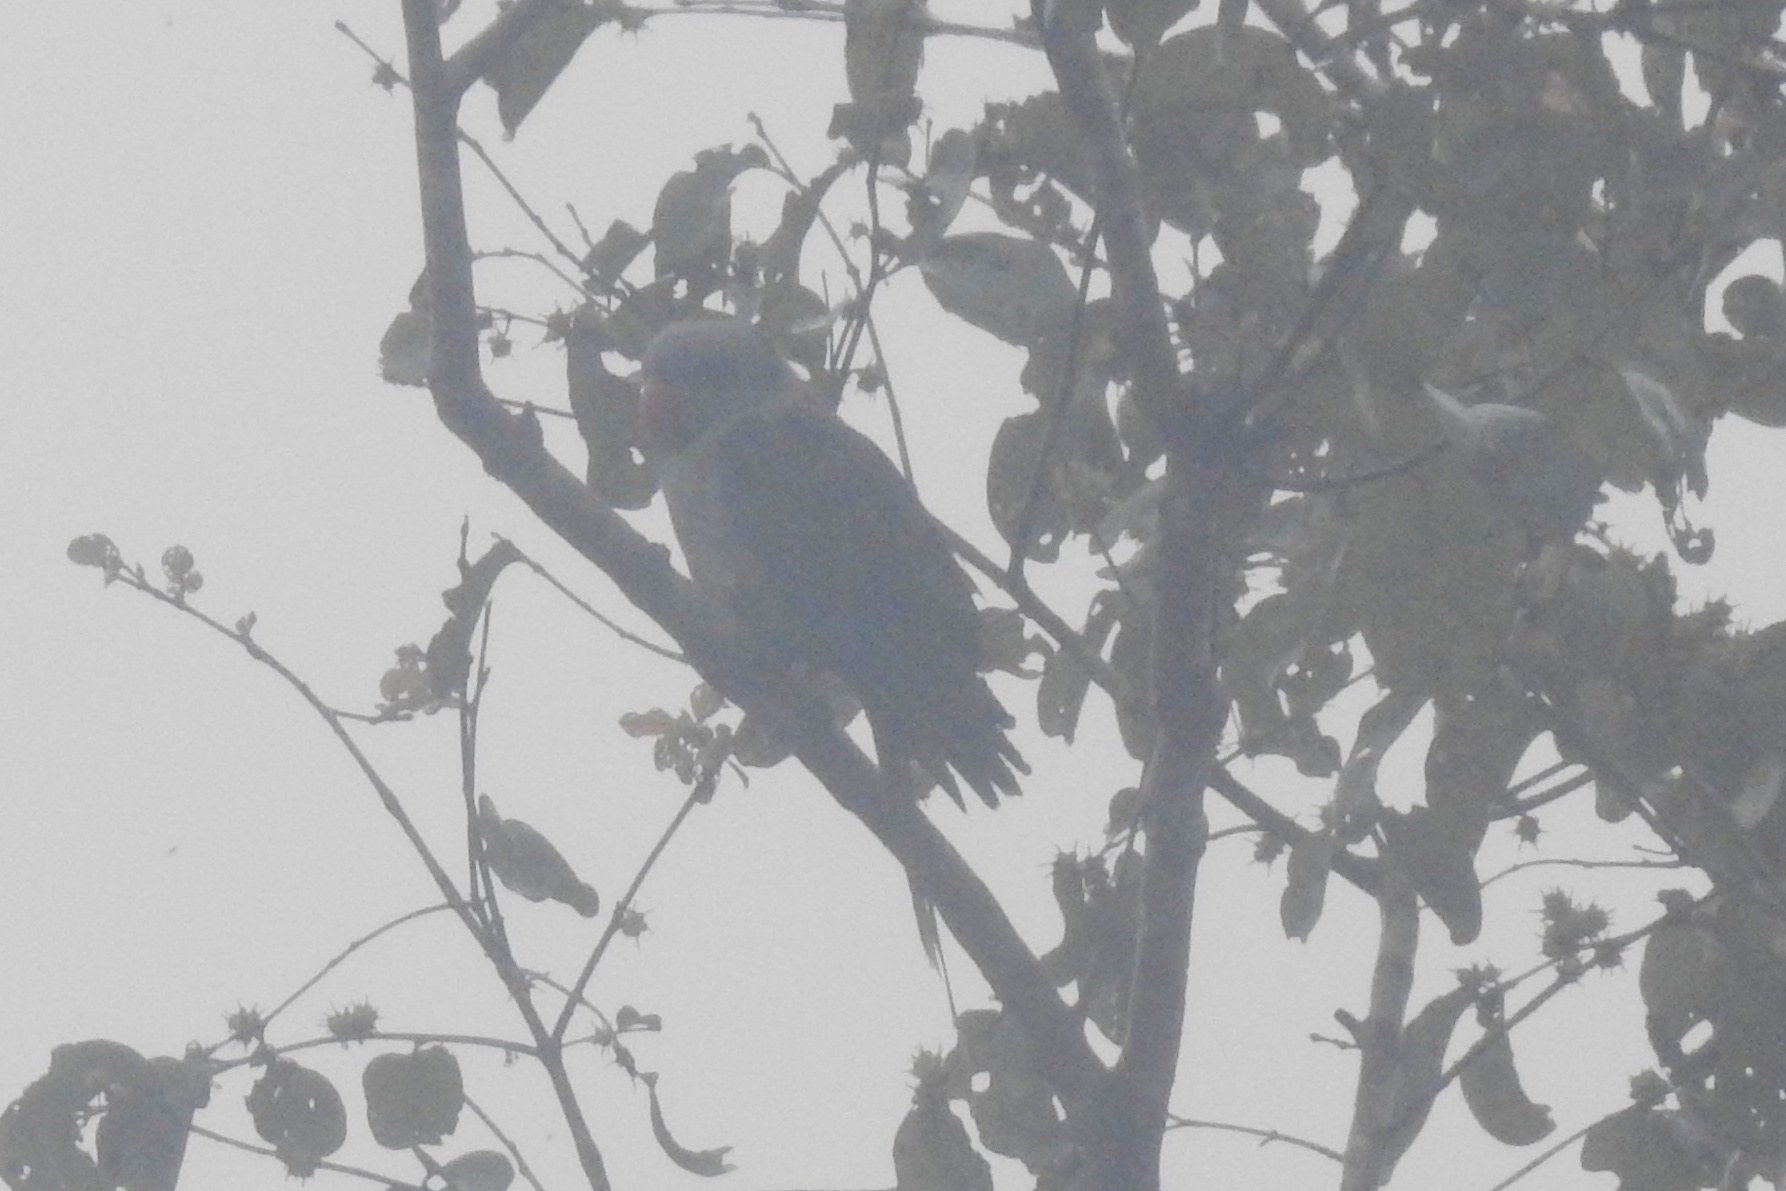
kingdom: Animalia
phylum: Chordata
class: Aves
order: Psittaciformes
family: Psittacidae
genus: Psittacula
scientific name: Psittacula columboides
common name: Blue-winged parakeet
